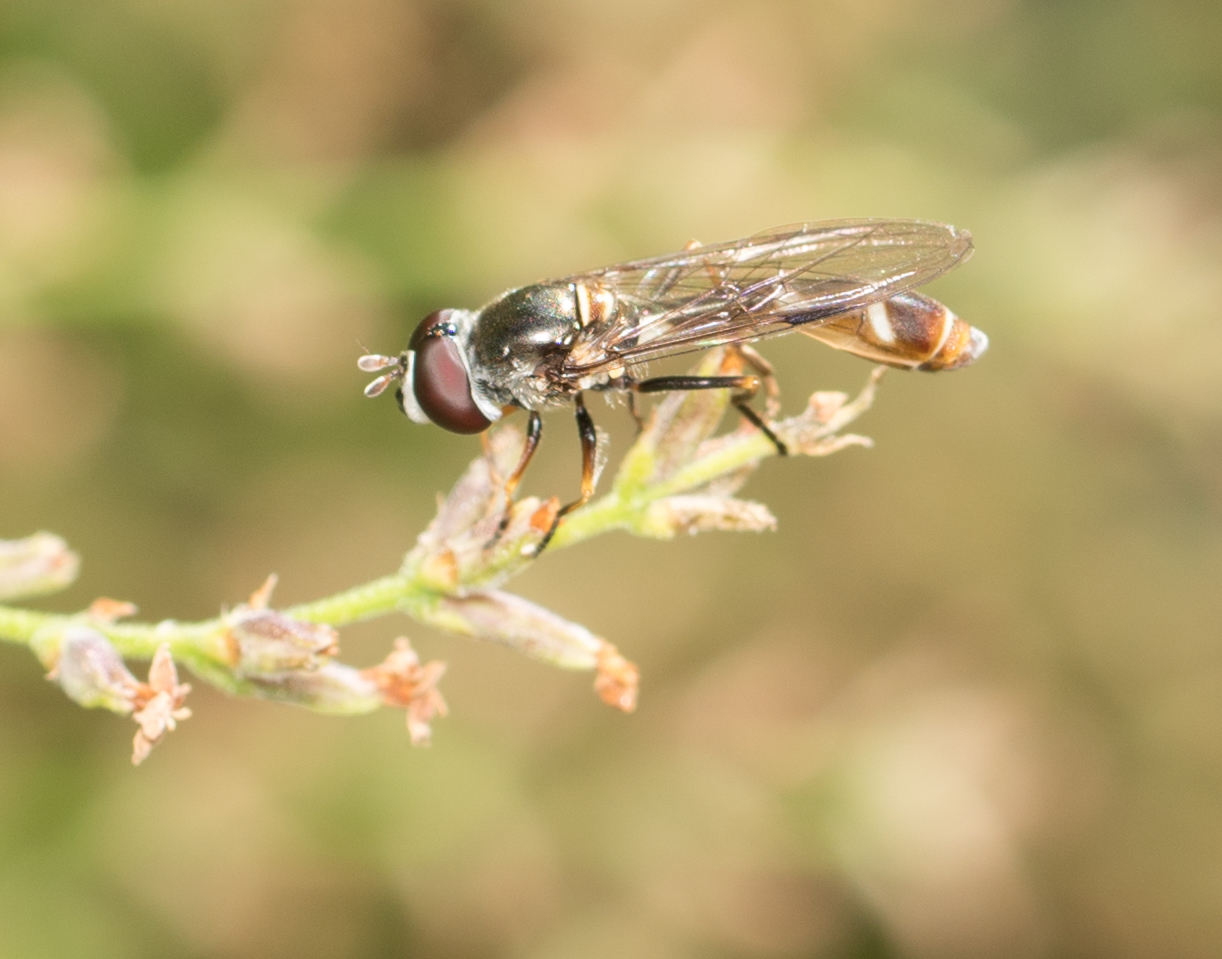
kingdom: Animalia
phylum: Arthropoda
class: Insecta
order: Diptera
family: Syrphidae
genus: Dioprosopa
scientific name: Dioprosopa clavatus
